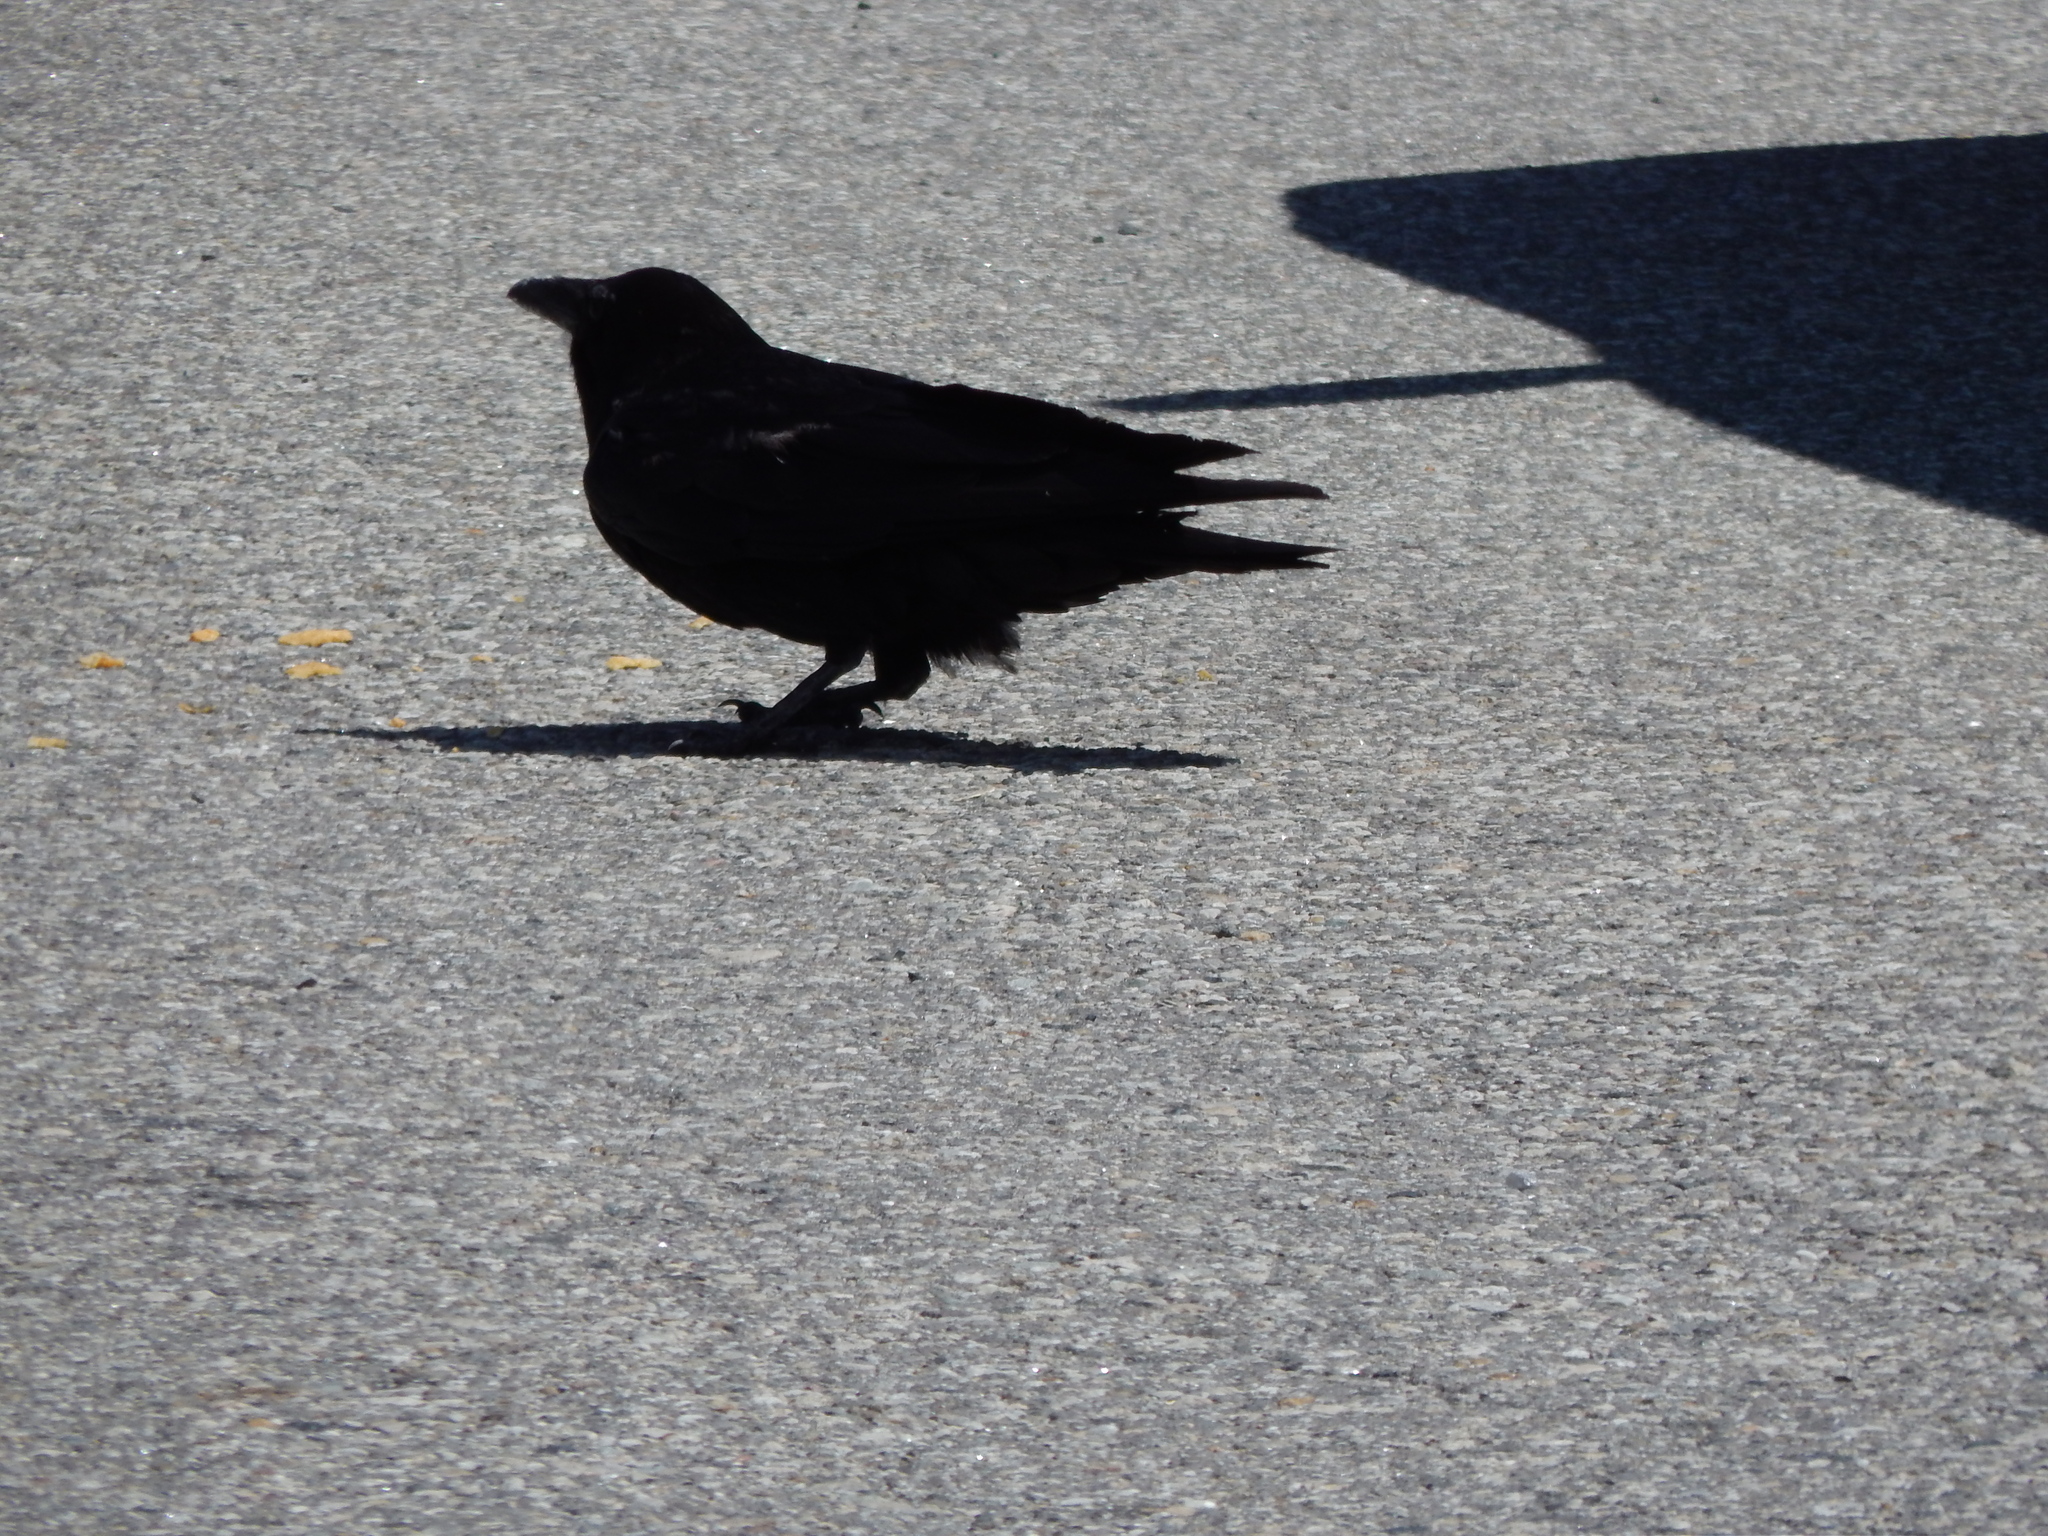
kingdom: Animalia
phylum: Chordata
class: Aves
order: Passeriformes
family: Corvidae
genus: Corvus
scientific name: Corvus corax
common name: Common raven
